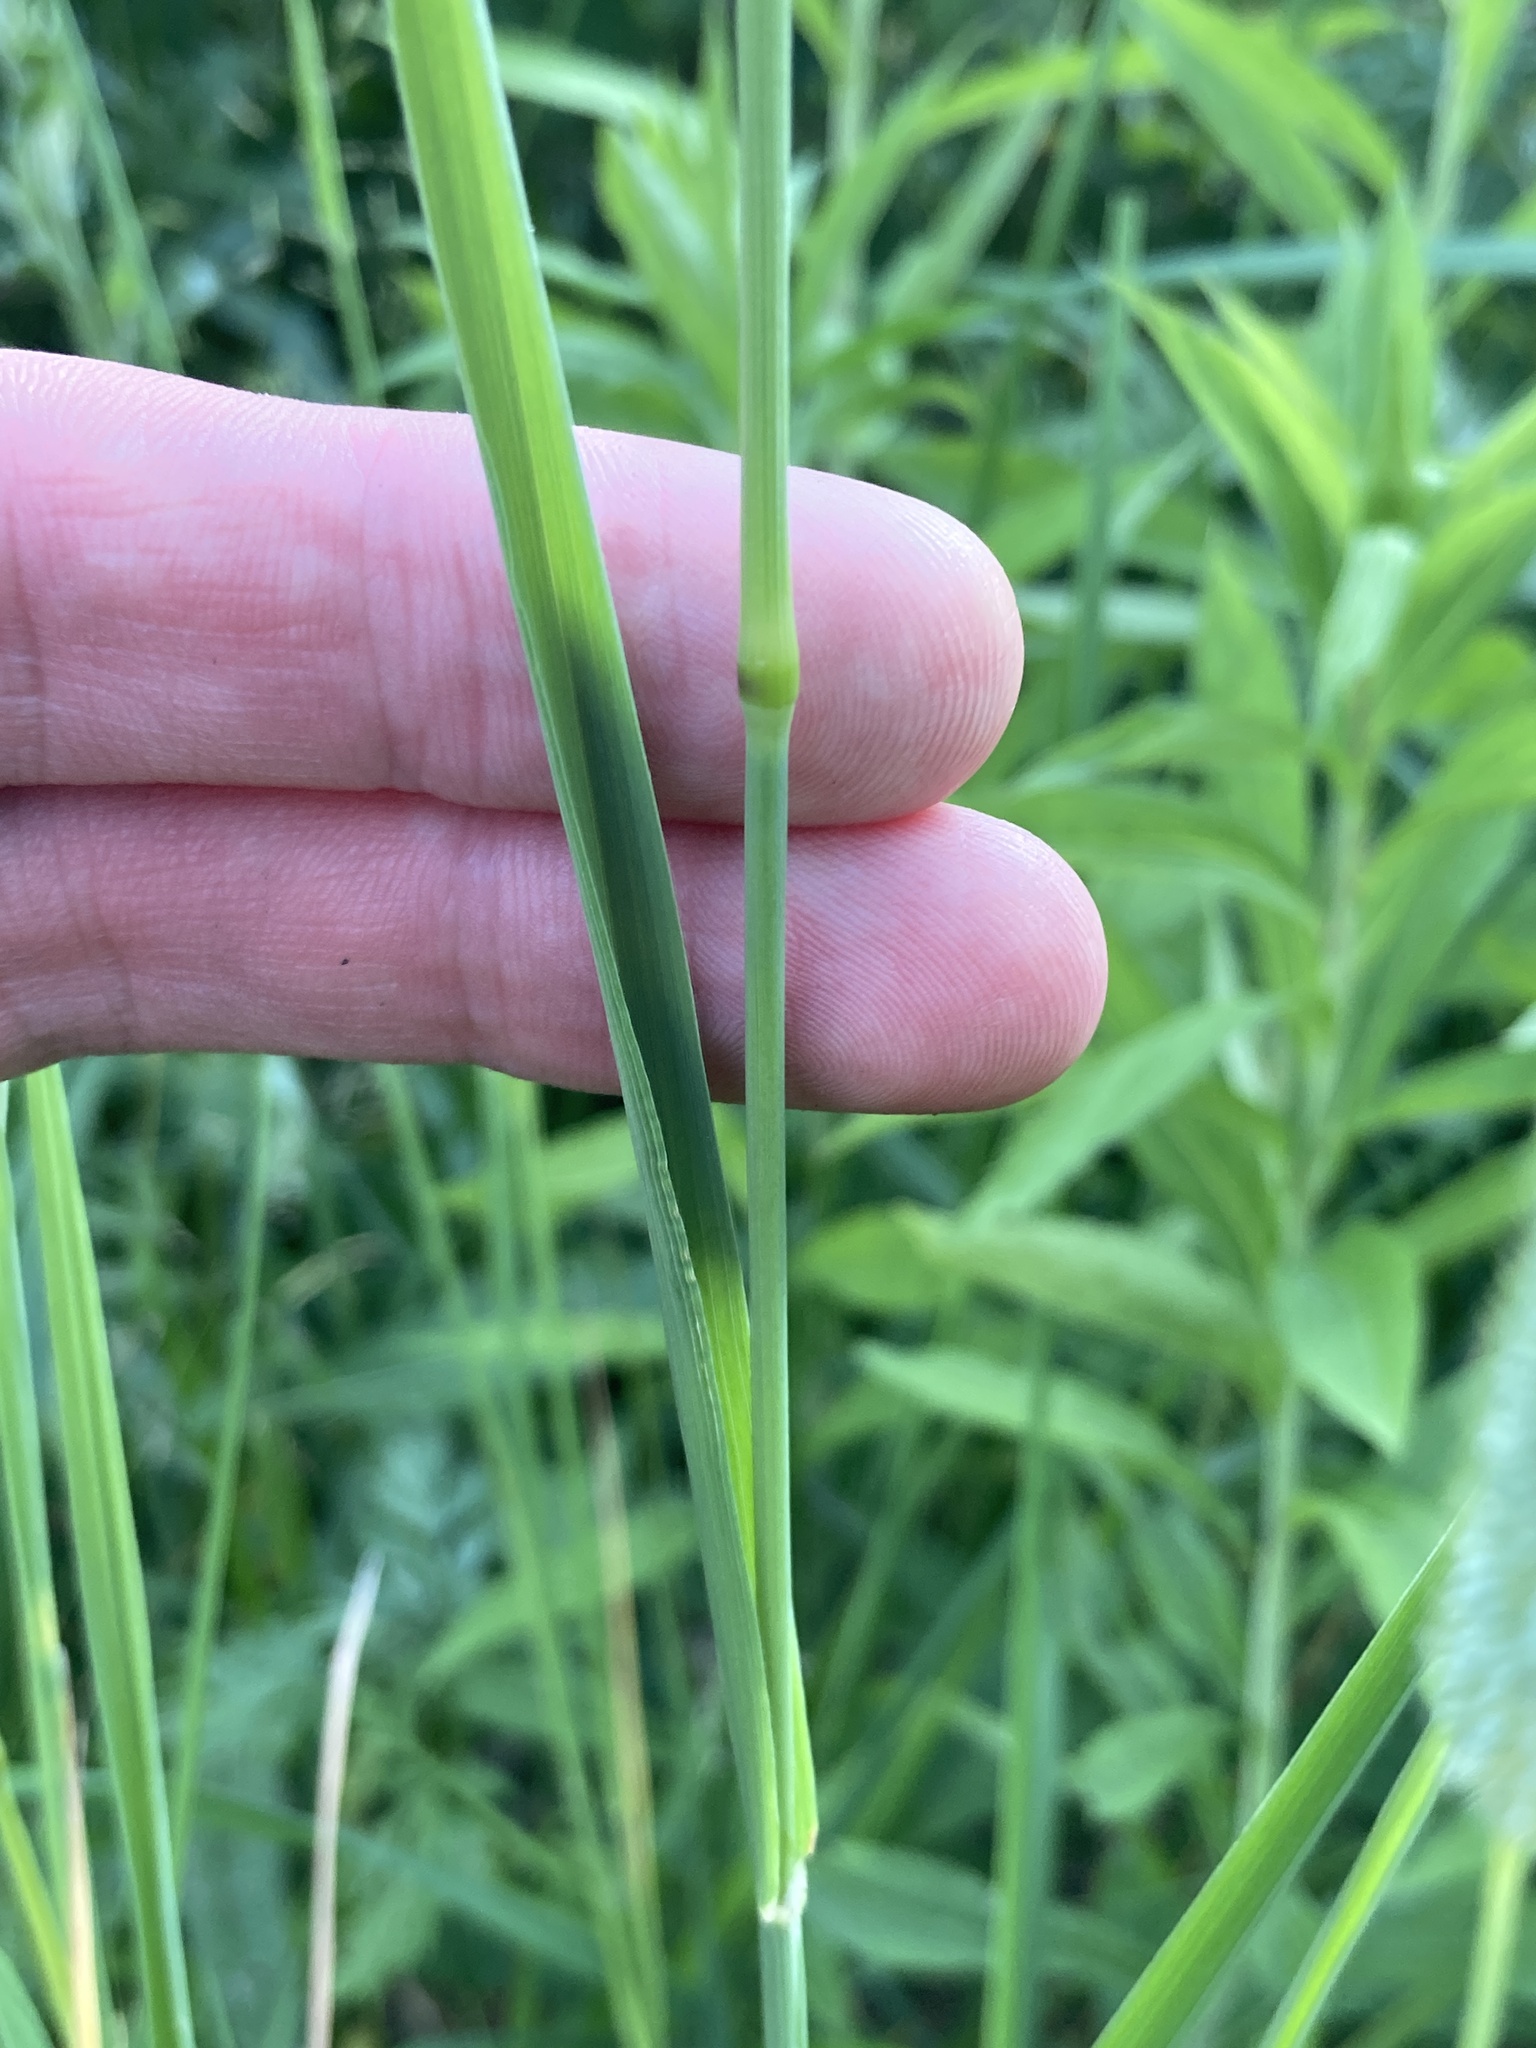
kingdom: Plantae
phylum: Tracheophyta
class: Liliopsida
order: Poales
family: Poaceae
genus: Phleum
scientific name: Phleum pratense
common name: Timothy grass
